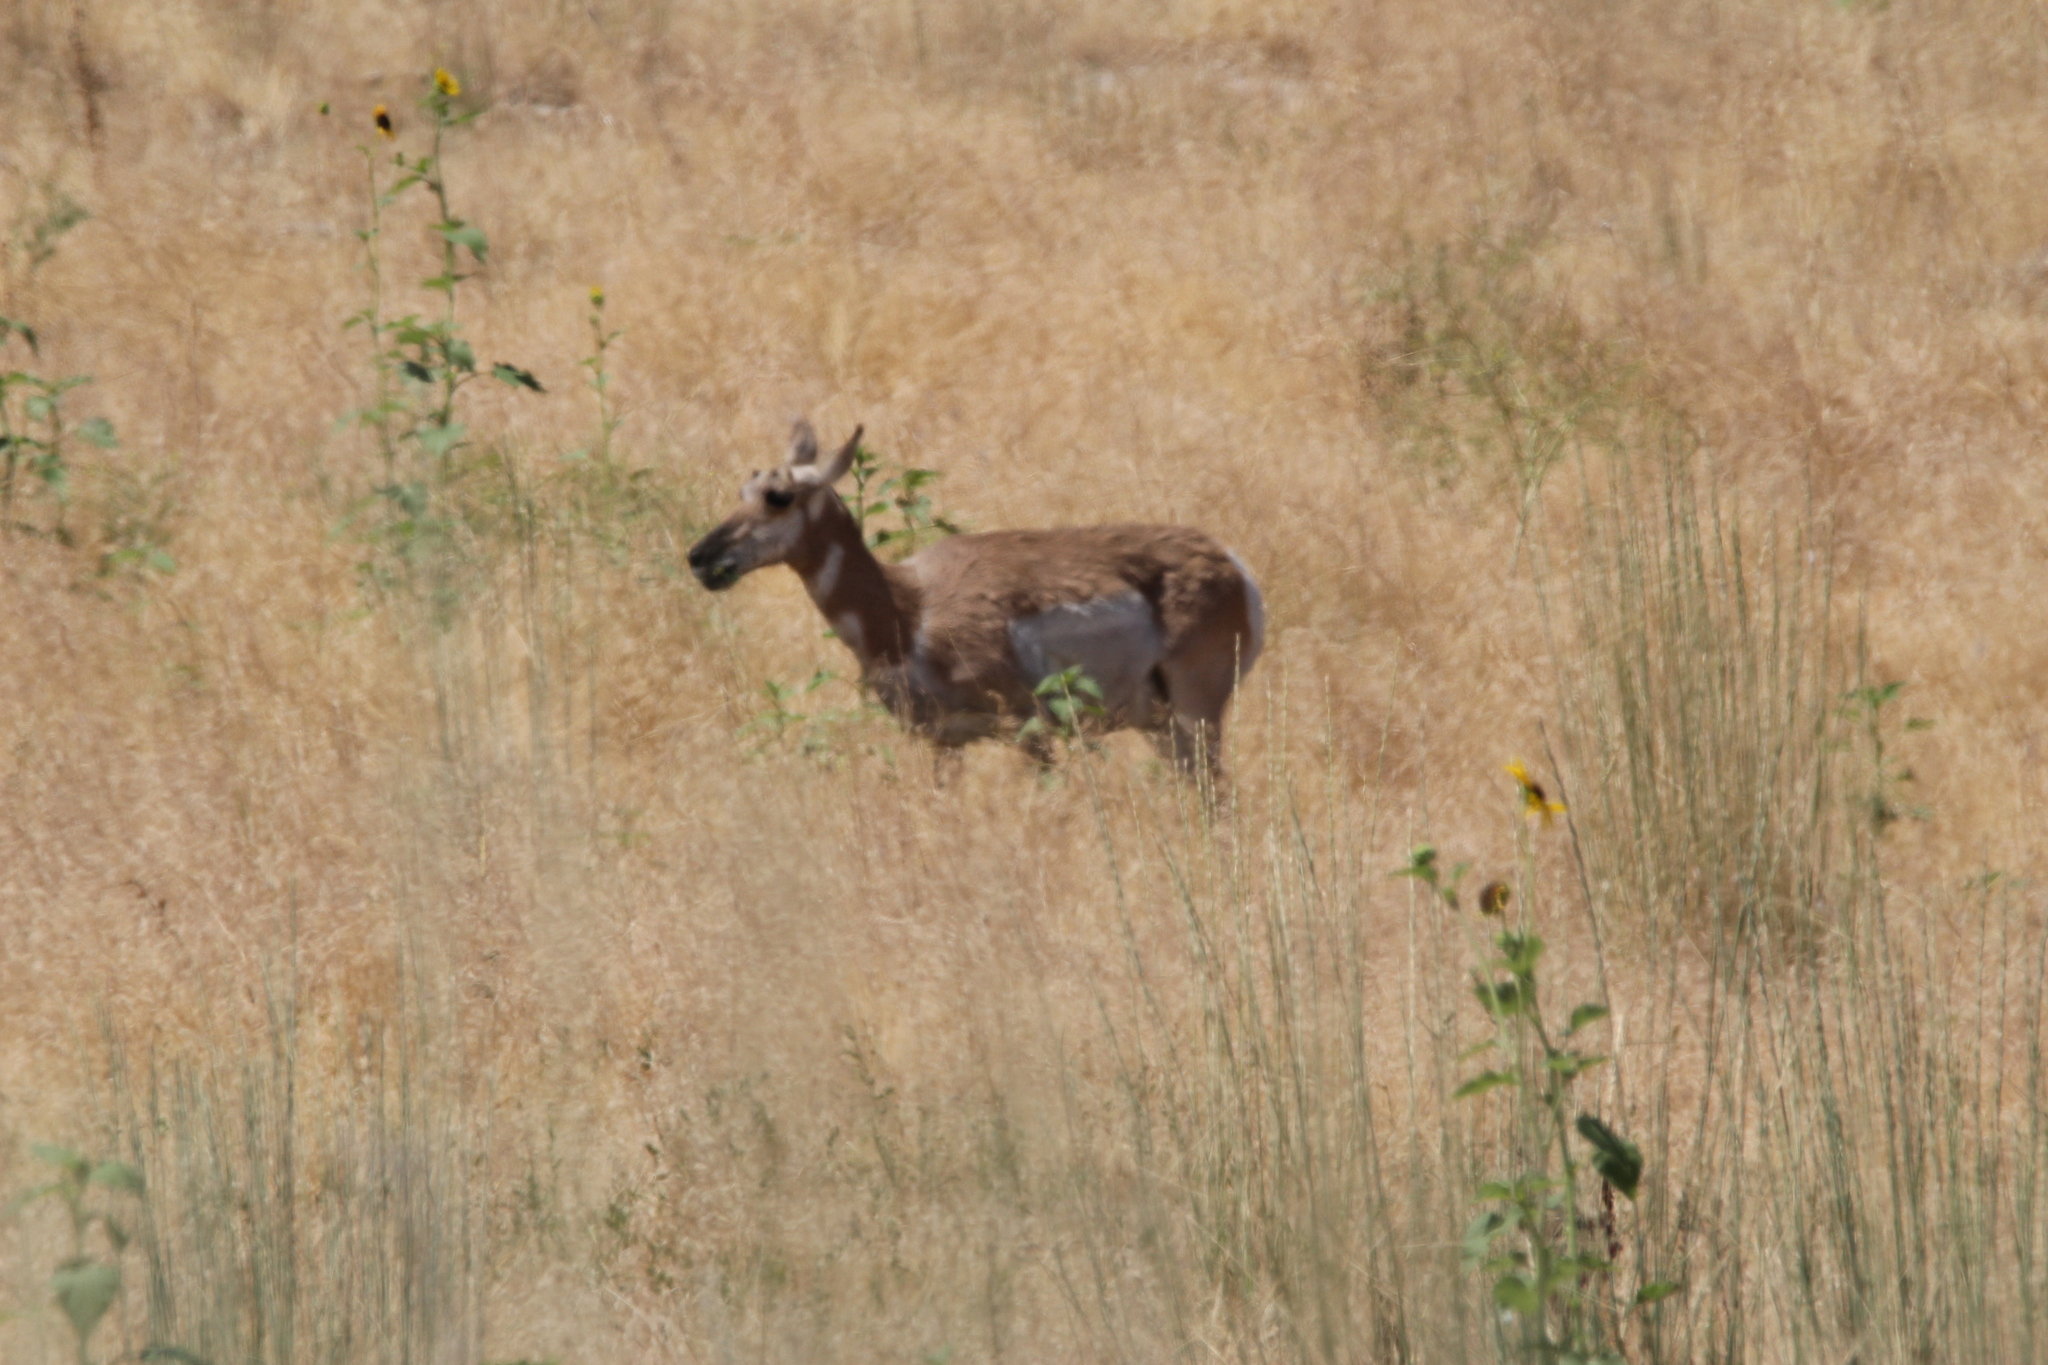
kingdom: Animalia
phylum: Chordata
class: Mammalia
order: Artiodactyla
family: Antilocapridae
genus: Antilocapra
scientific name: Antilocapra americana
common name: Pronghorn
